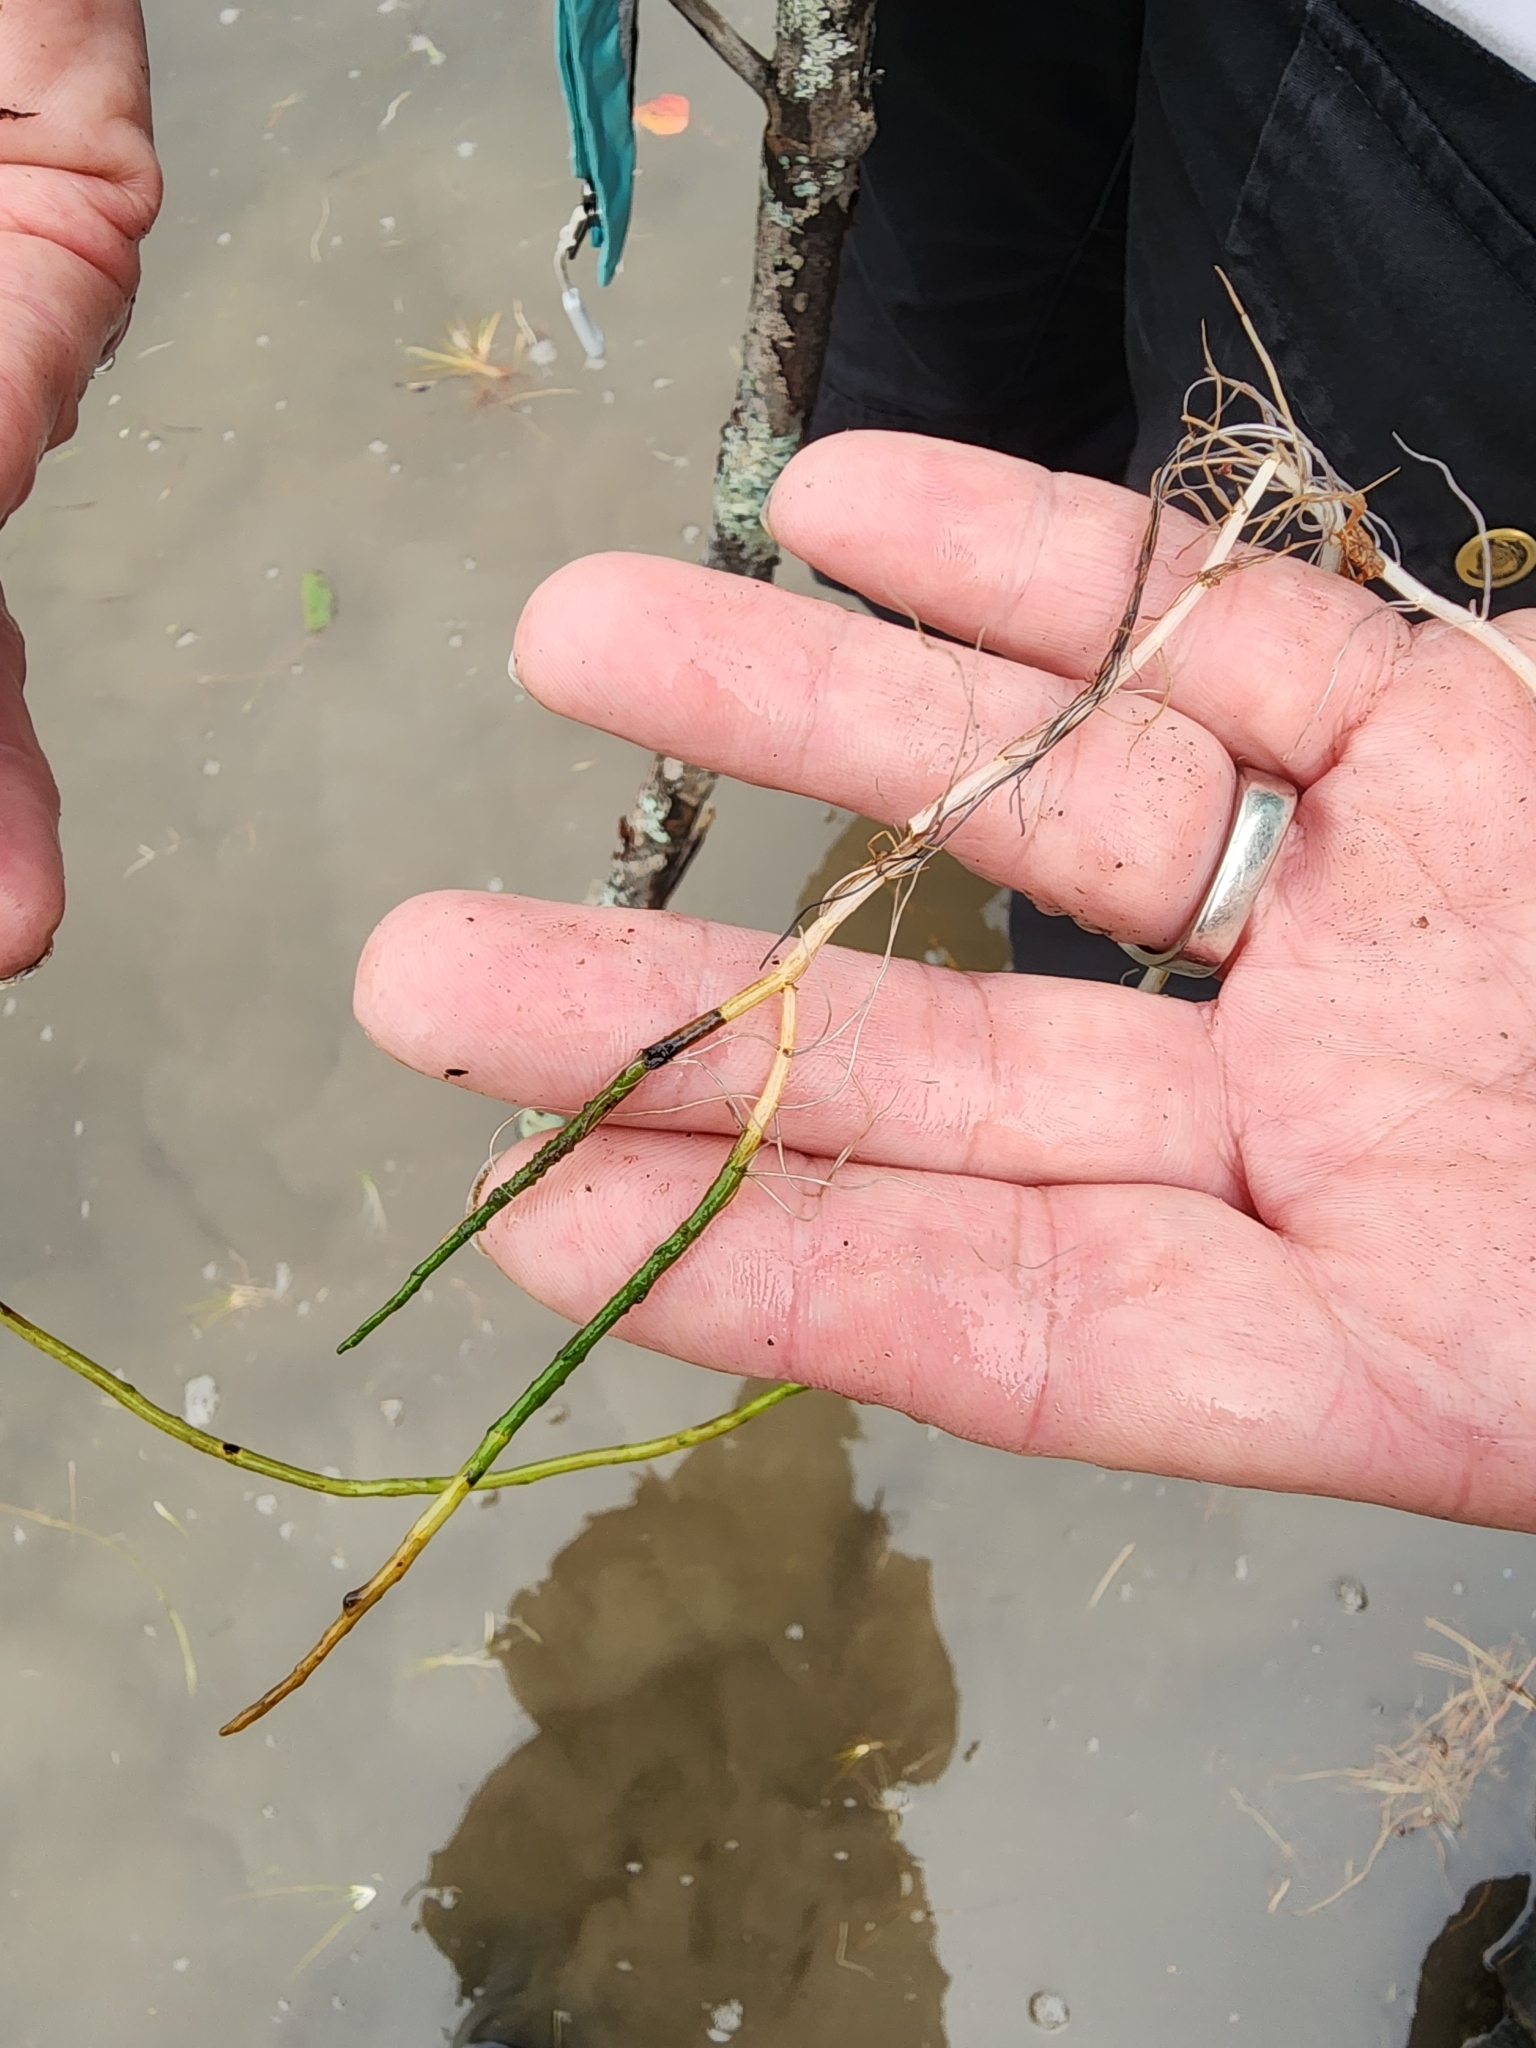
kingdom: Plantae
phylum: Tracheophyta
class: Magnoliopsida
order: Saxifragales
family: Haloragaceae
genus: Myriophyllum
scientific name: Myriophyllum tenellum
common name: Slender water-milfoil
